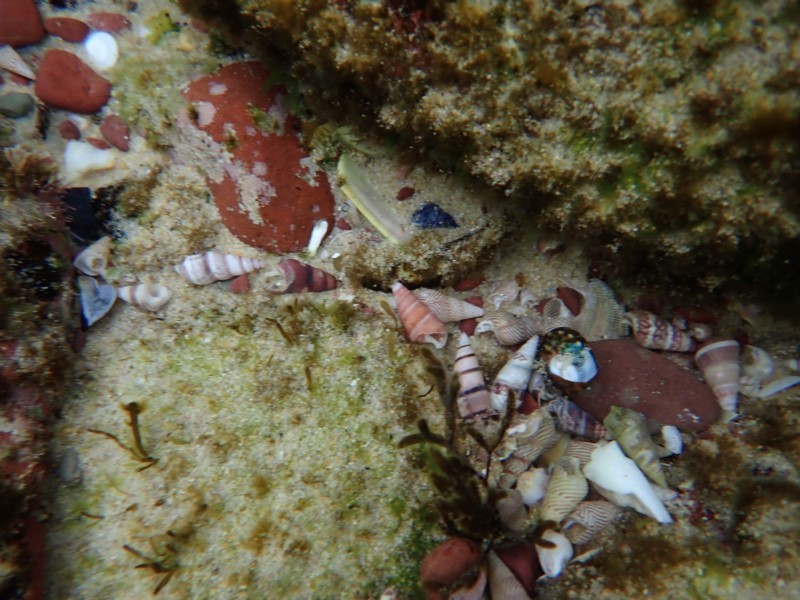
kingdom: Animalia
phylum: Mollusca
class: Gastropoda
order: Trochida
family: Trochidae
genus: Bankivia
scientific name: Bankivia fasciata
